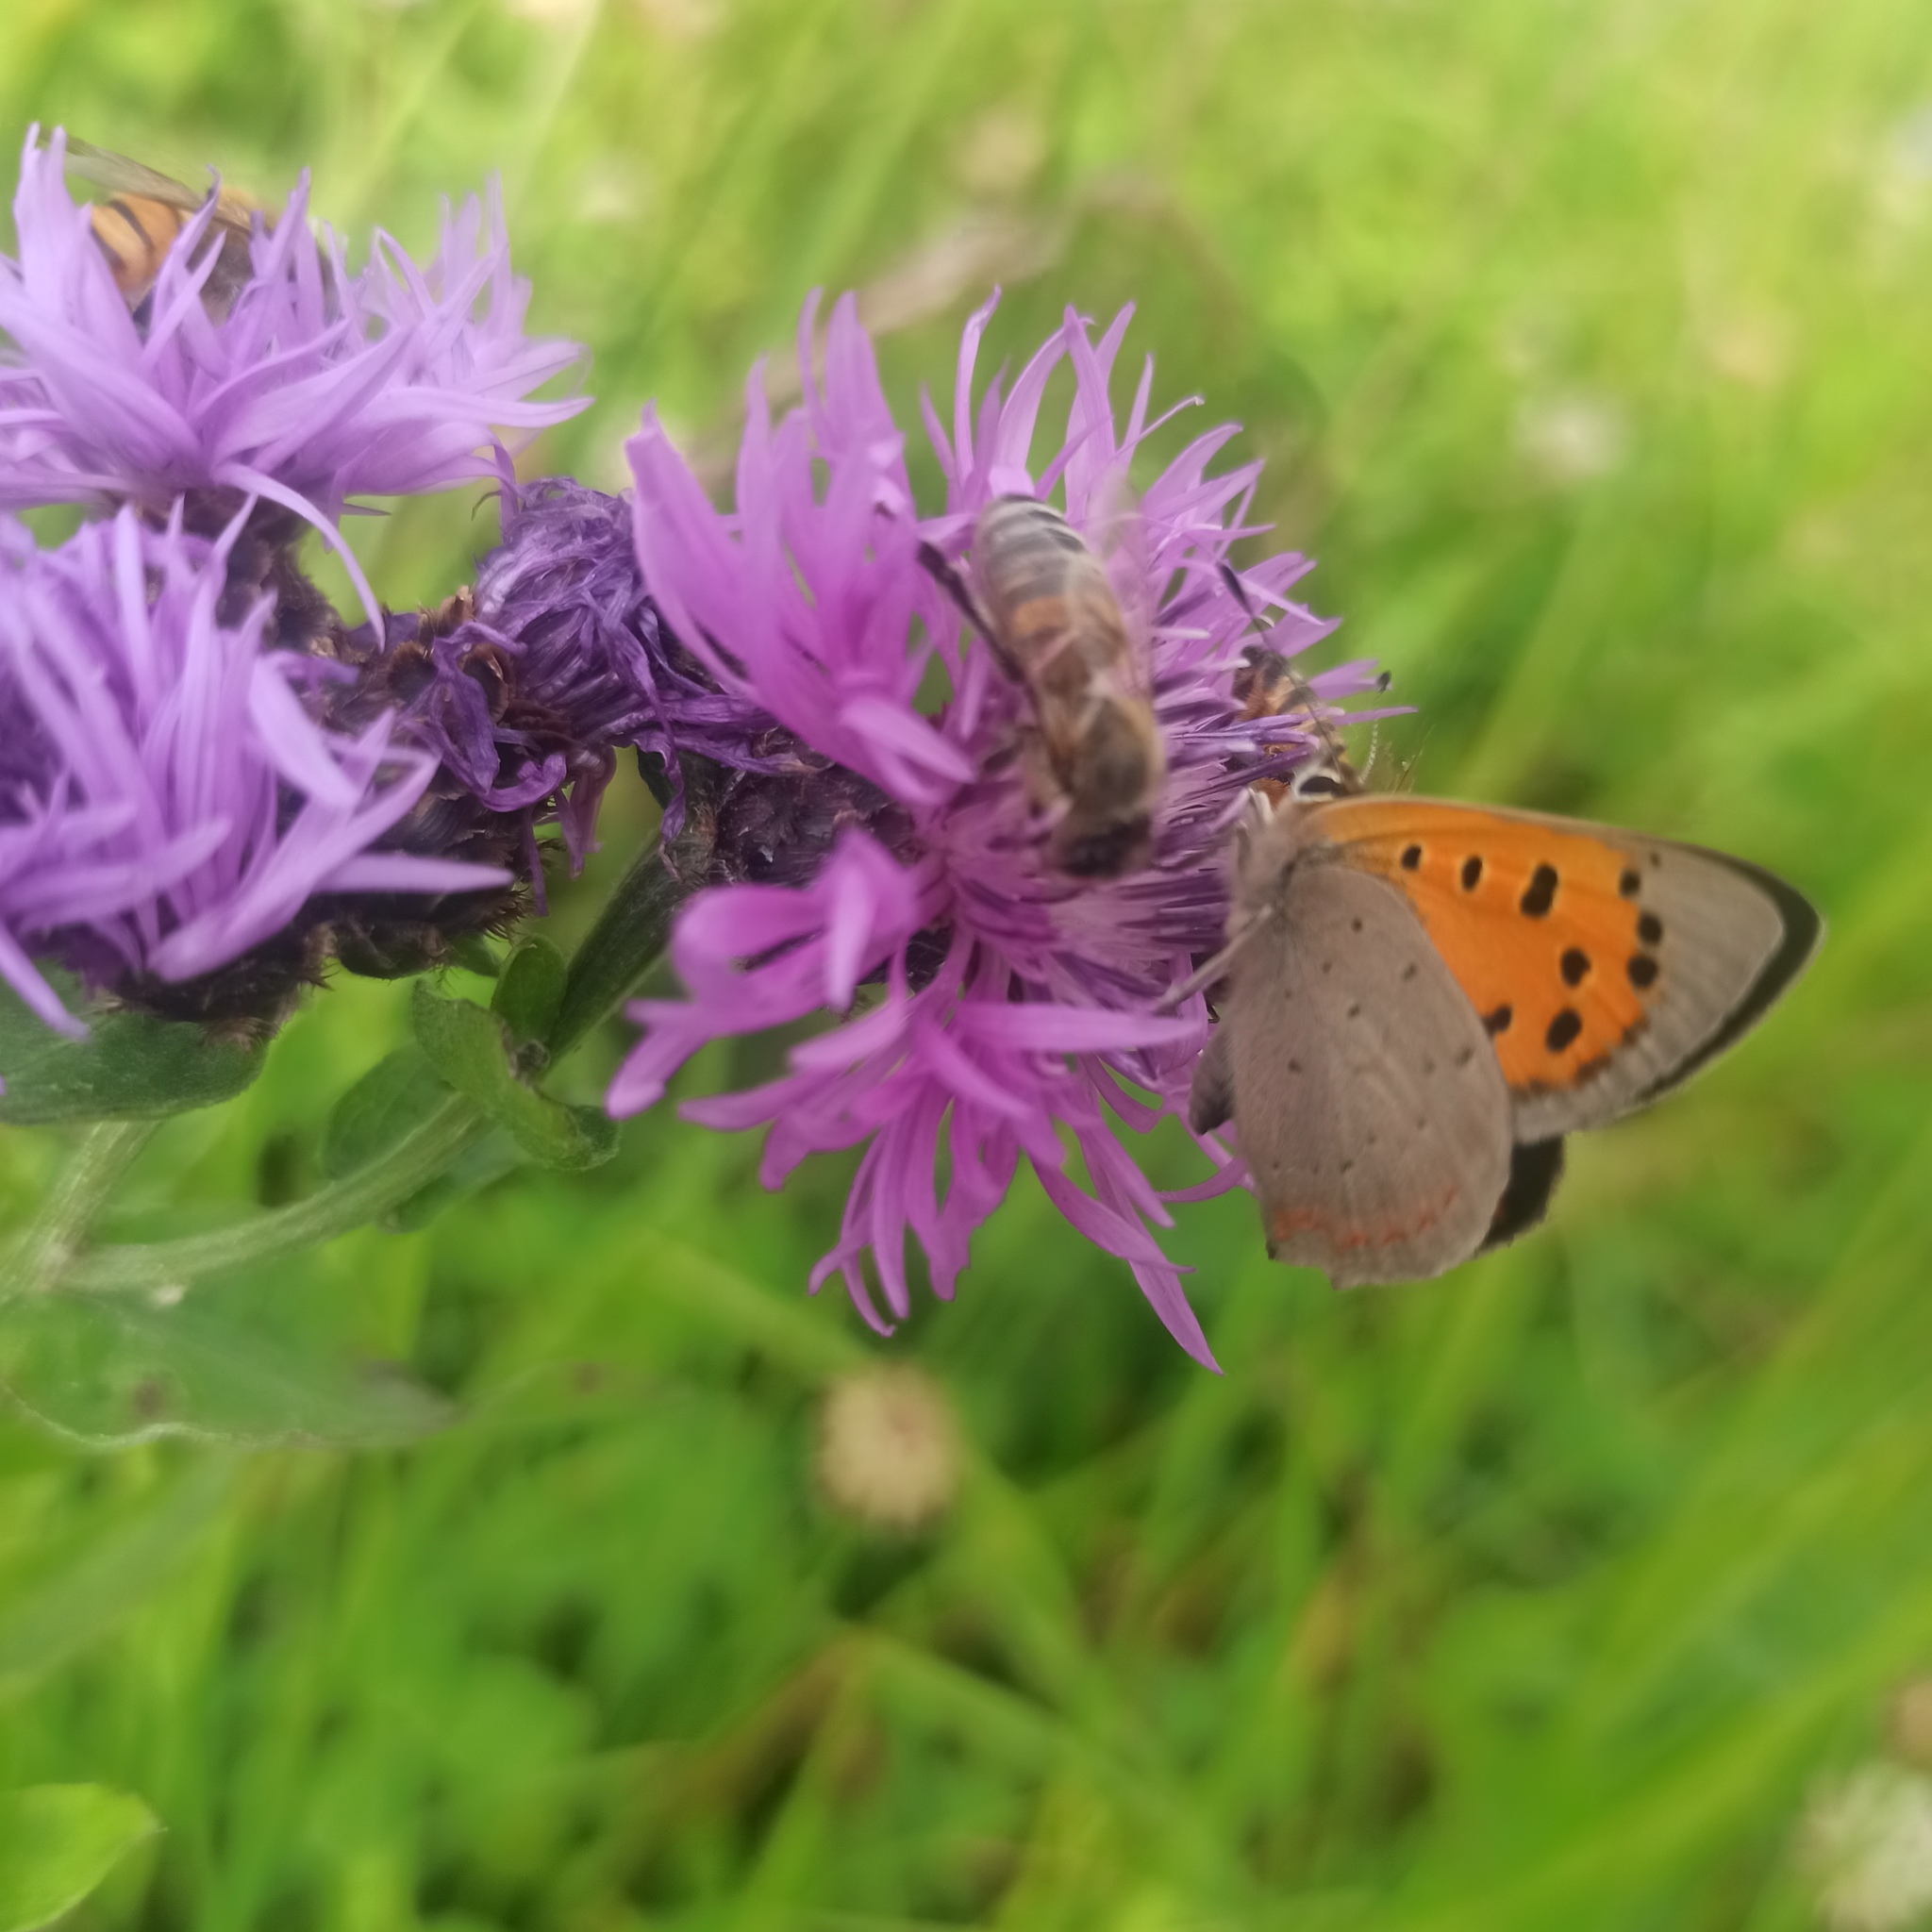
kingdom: Animalia
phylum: Arthropoda
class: Insecta
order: Lepidoptera
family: Lycaenidae
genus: Lycaena
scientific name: Lycaena phlaeas
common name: Small copper
